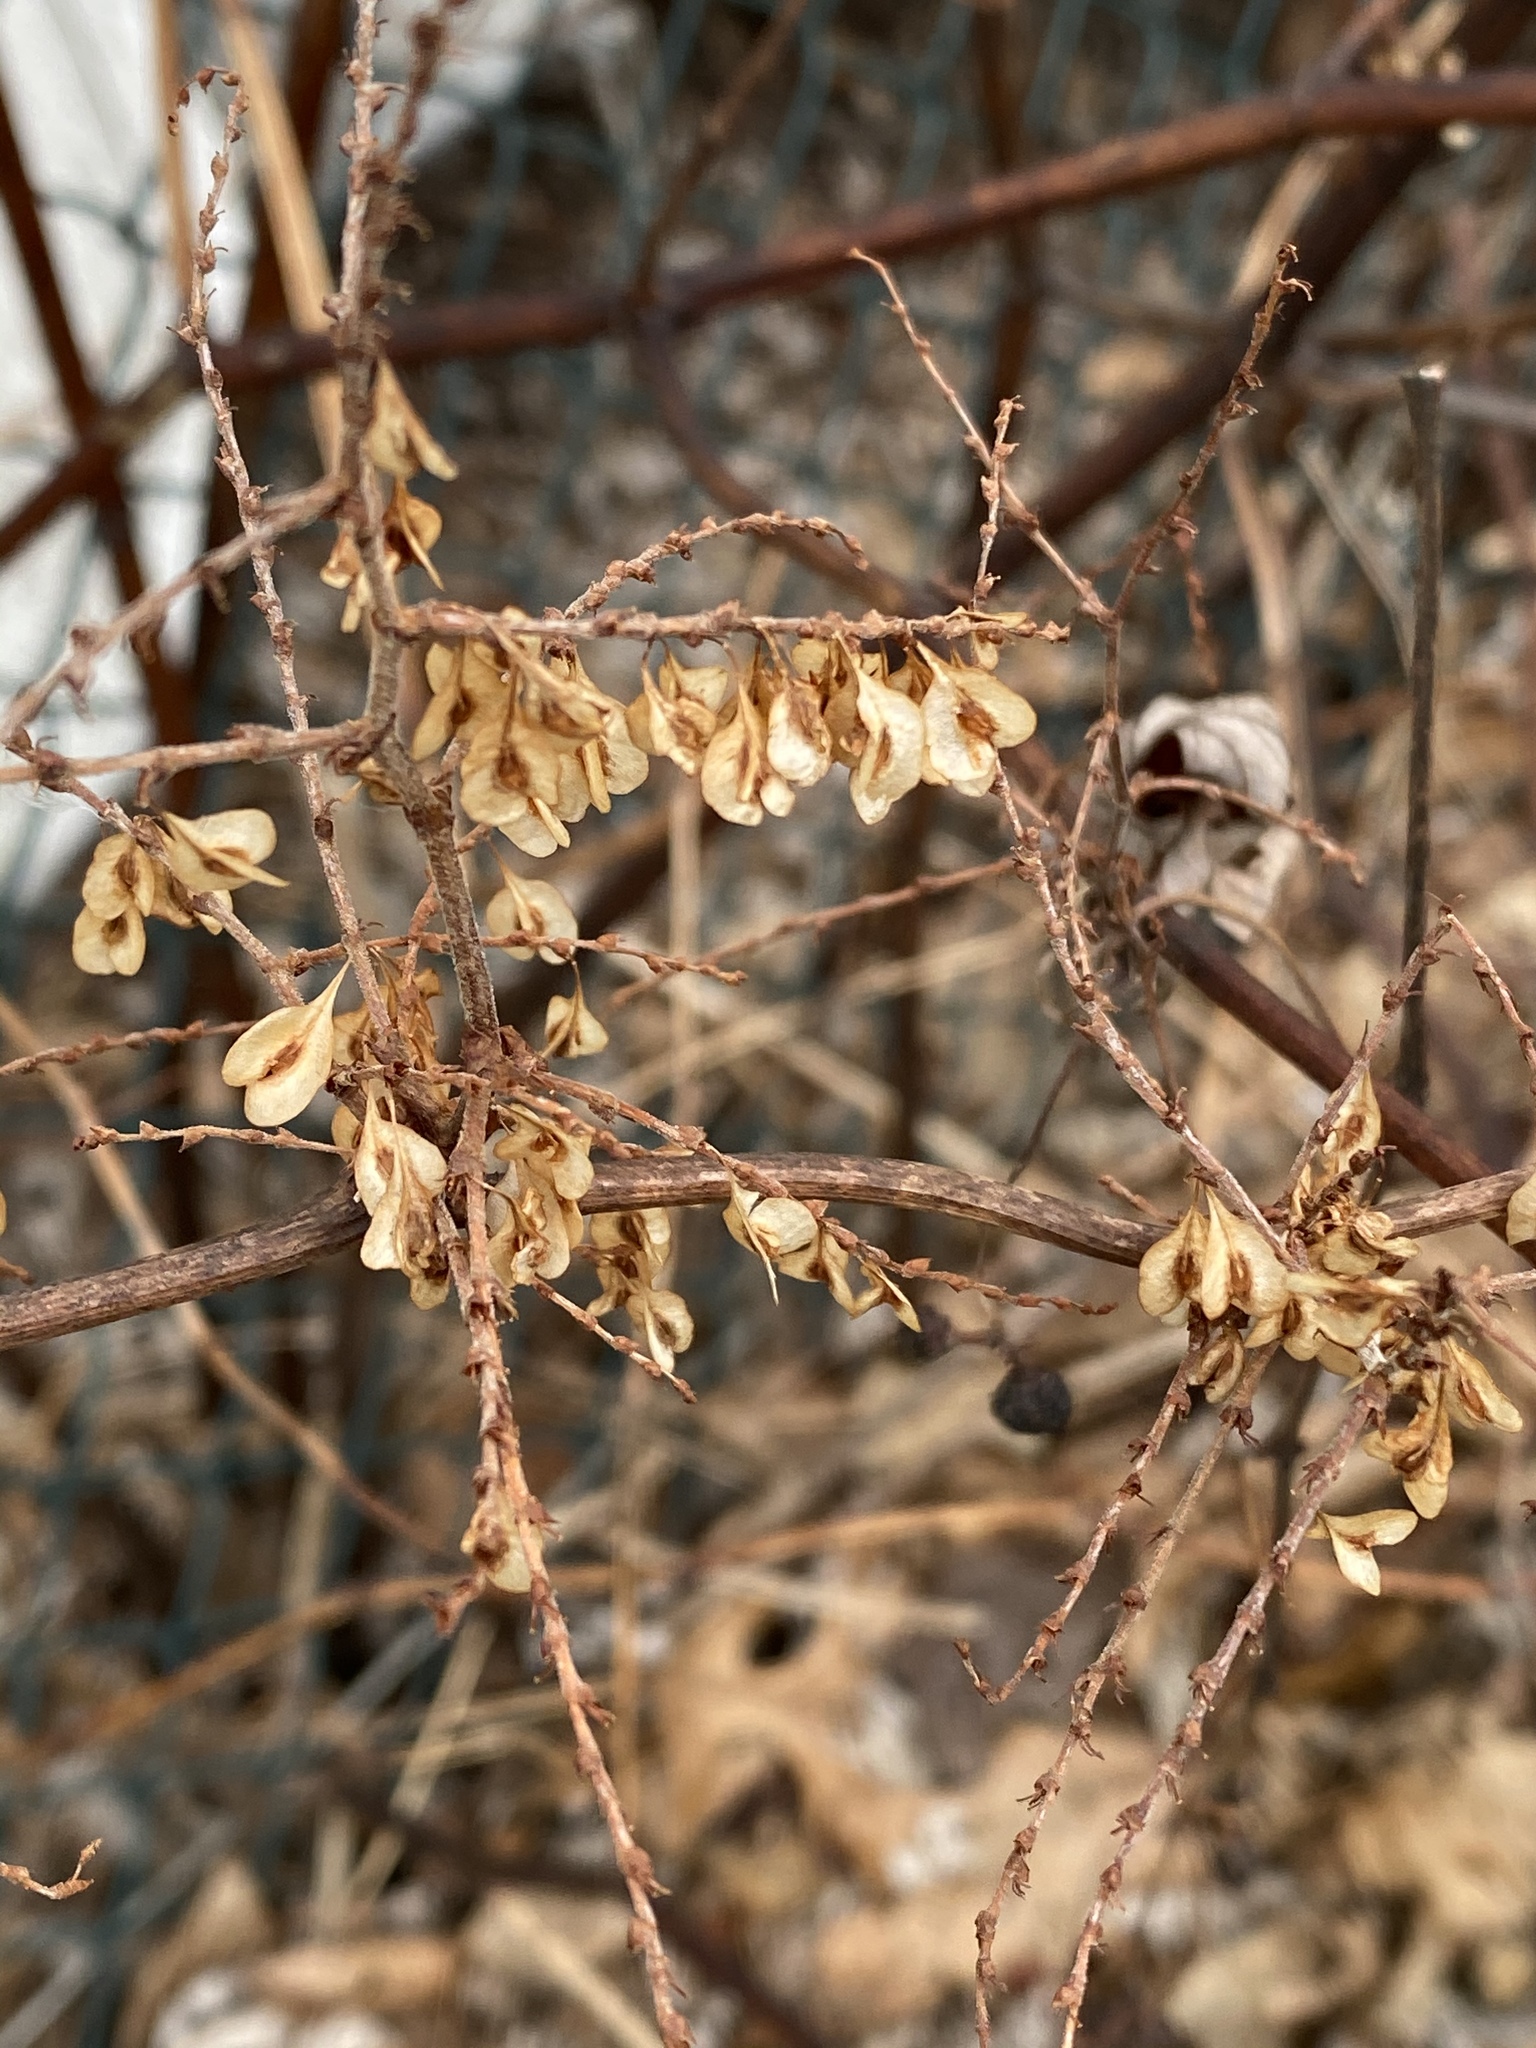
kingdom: Plantae
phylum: Tracheophyta
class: Magnoliopsida
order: Caryophyllales
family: Polygonaceae
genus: Reynoutria
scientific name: Reynoutria japonica
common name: Japanese knotweed
